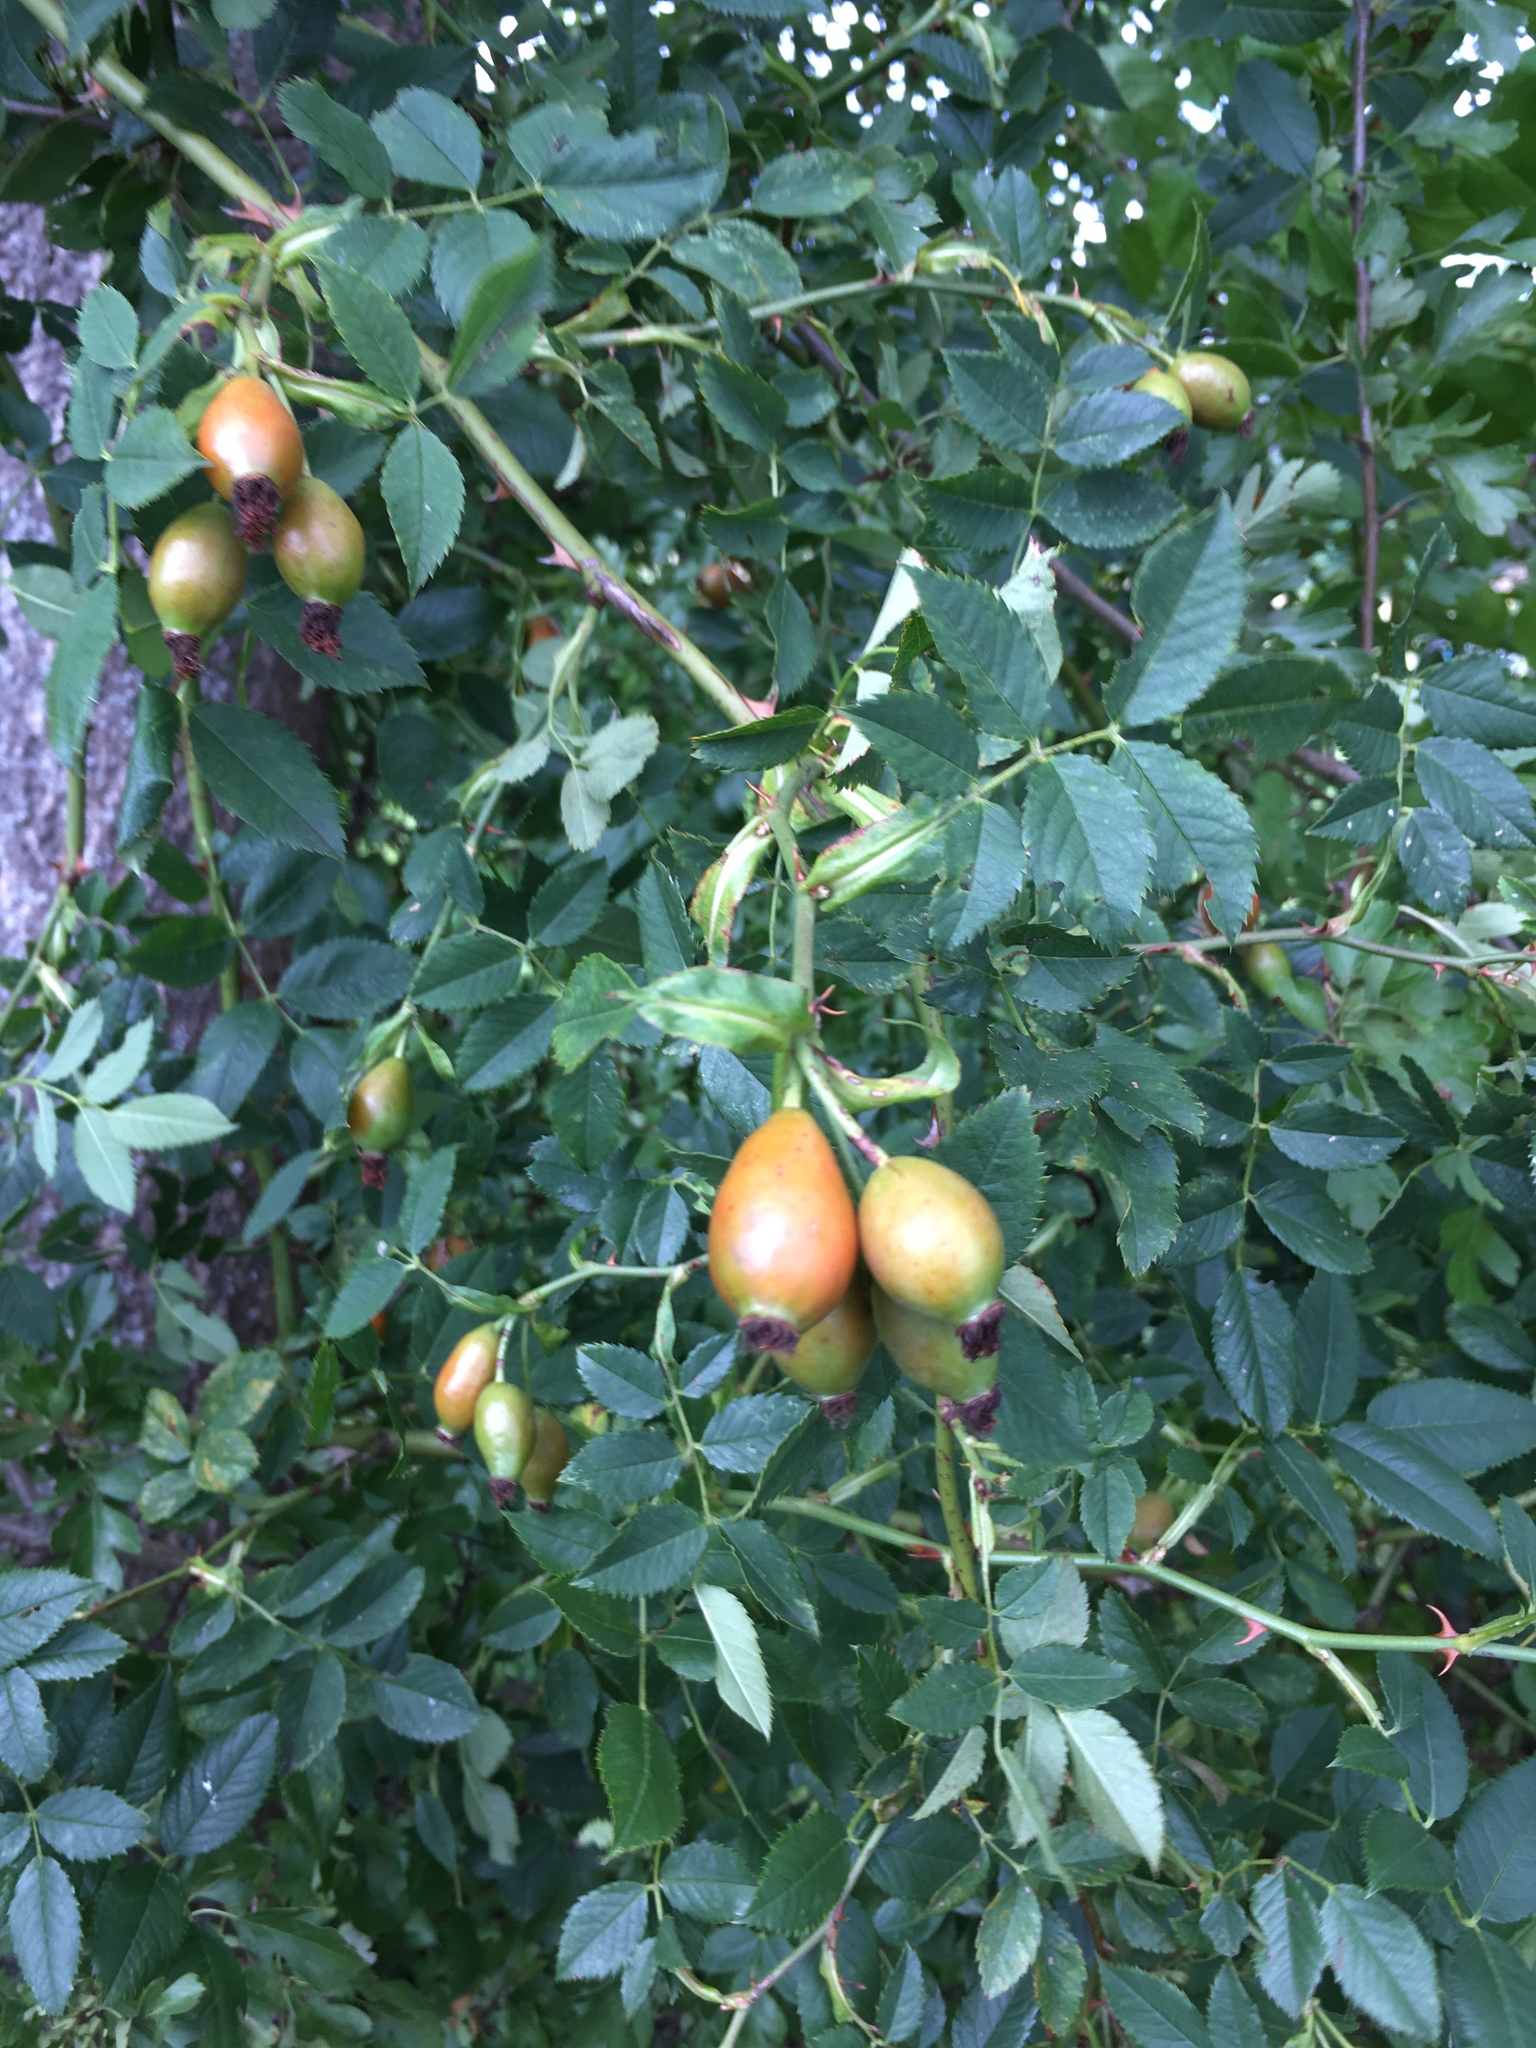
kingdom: Plantae
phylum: Tracheophyta
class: Magnoliopsida
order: Rosales
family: Rosaceae
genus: Rosa
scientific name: Rosa canina
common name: Dog rose
